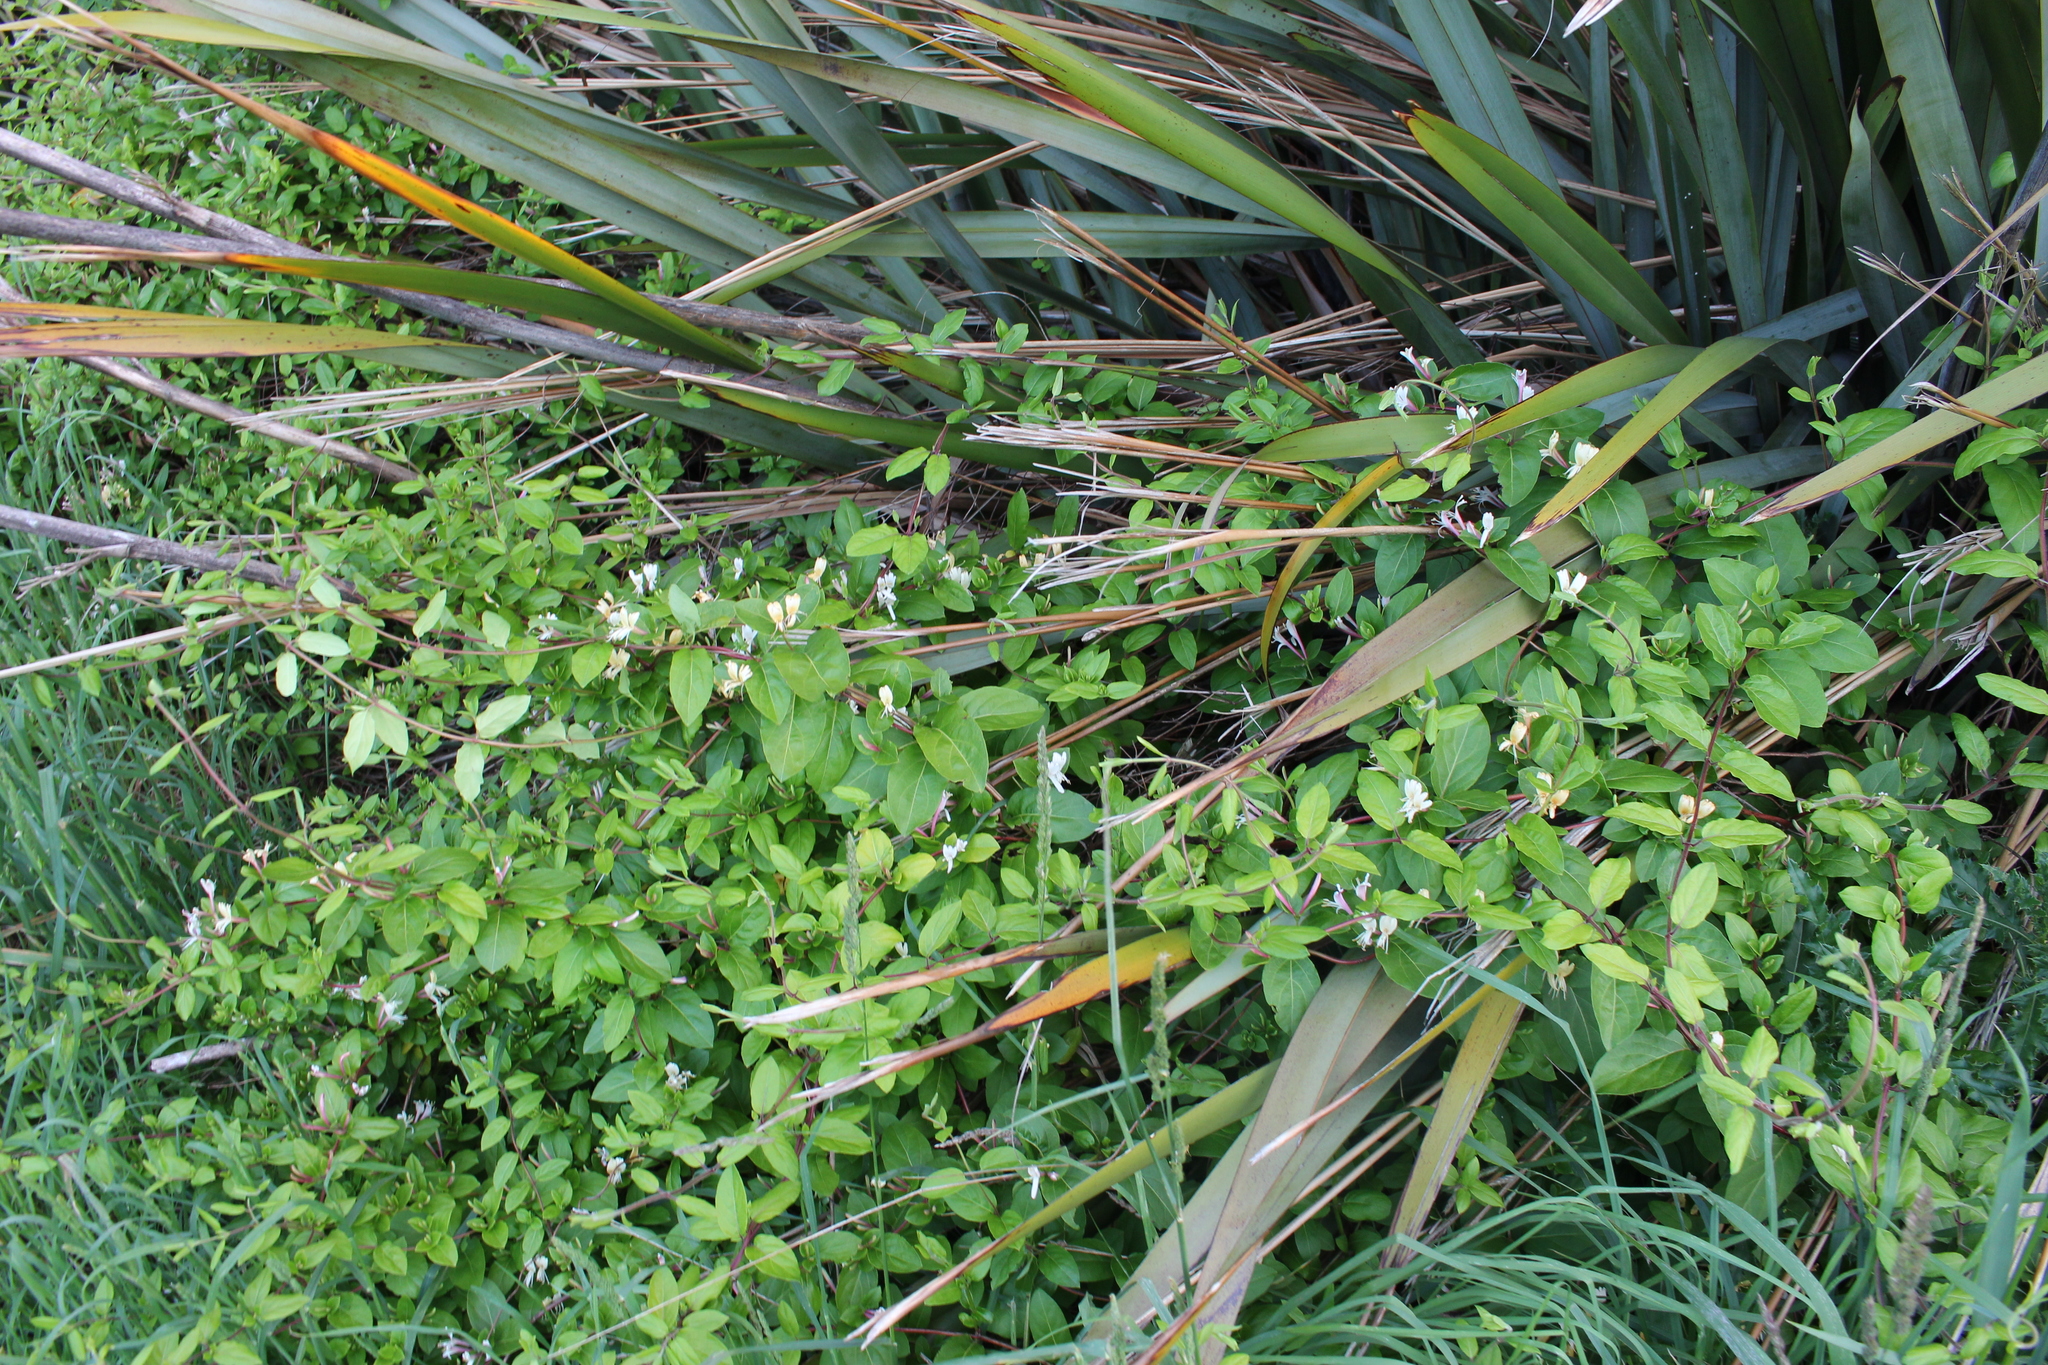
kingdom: Plantae
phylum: Tracheophyta
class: Magnoliopsida
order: Dipsacales
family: Caprifoliaceae
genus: Lonicera
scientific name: Lonicera japonica
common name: Japanese honeysuckle
